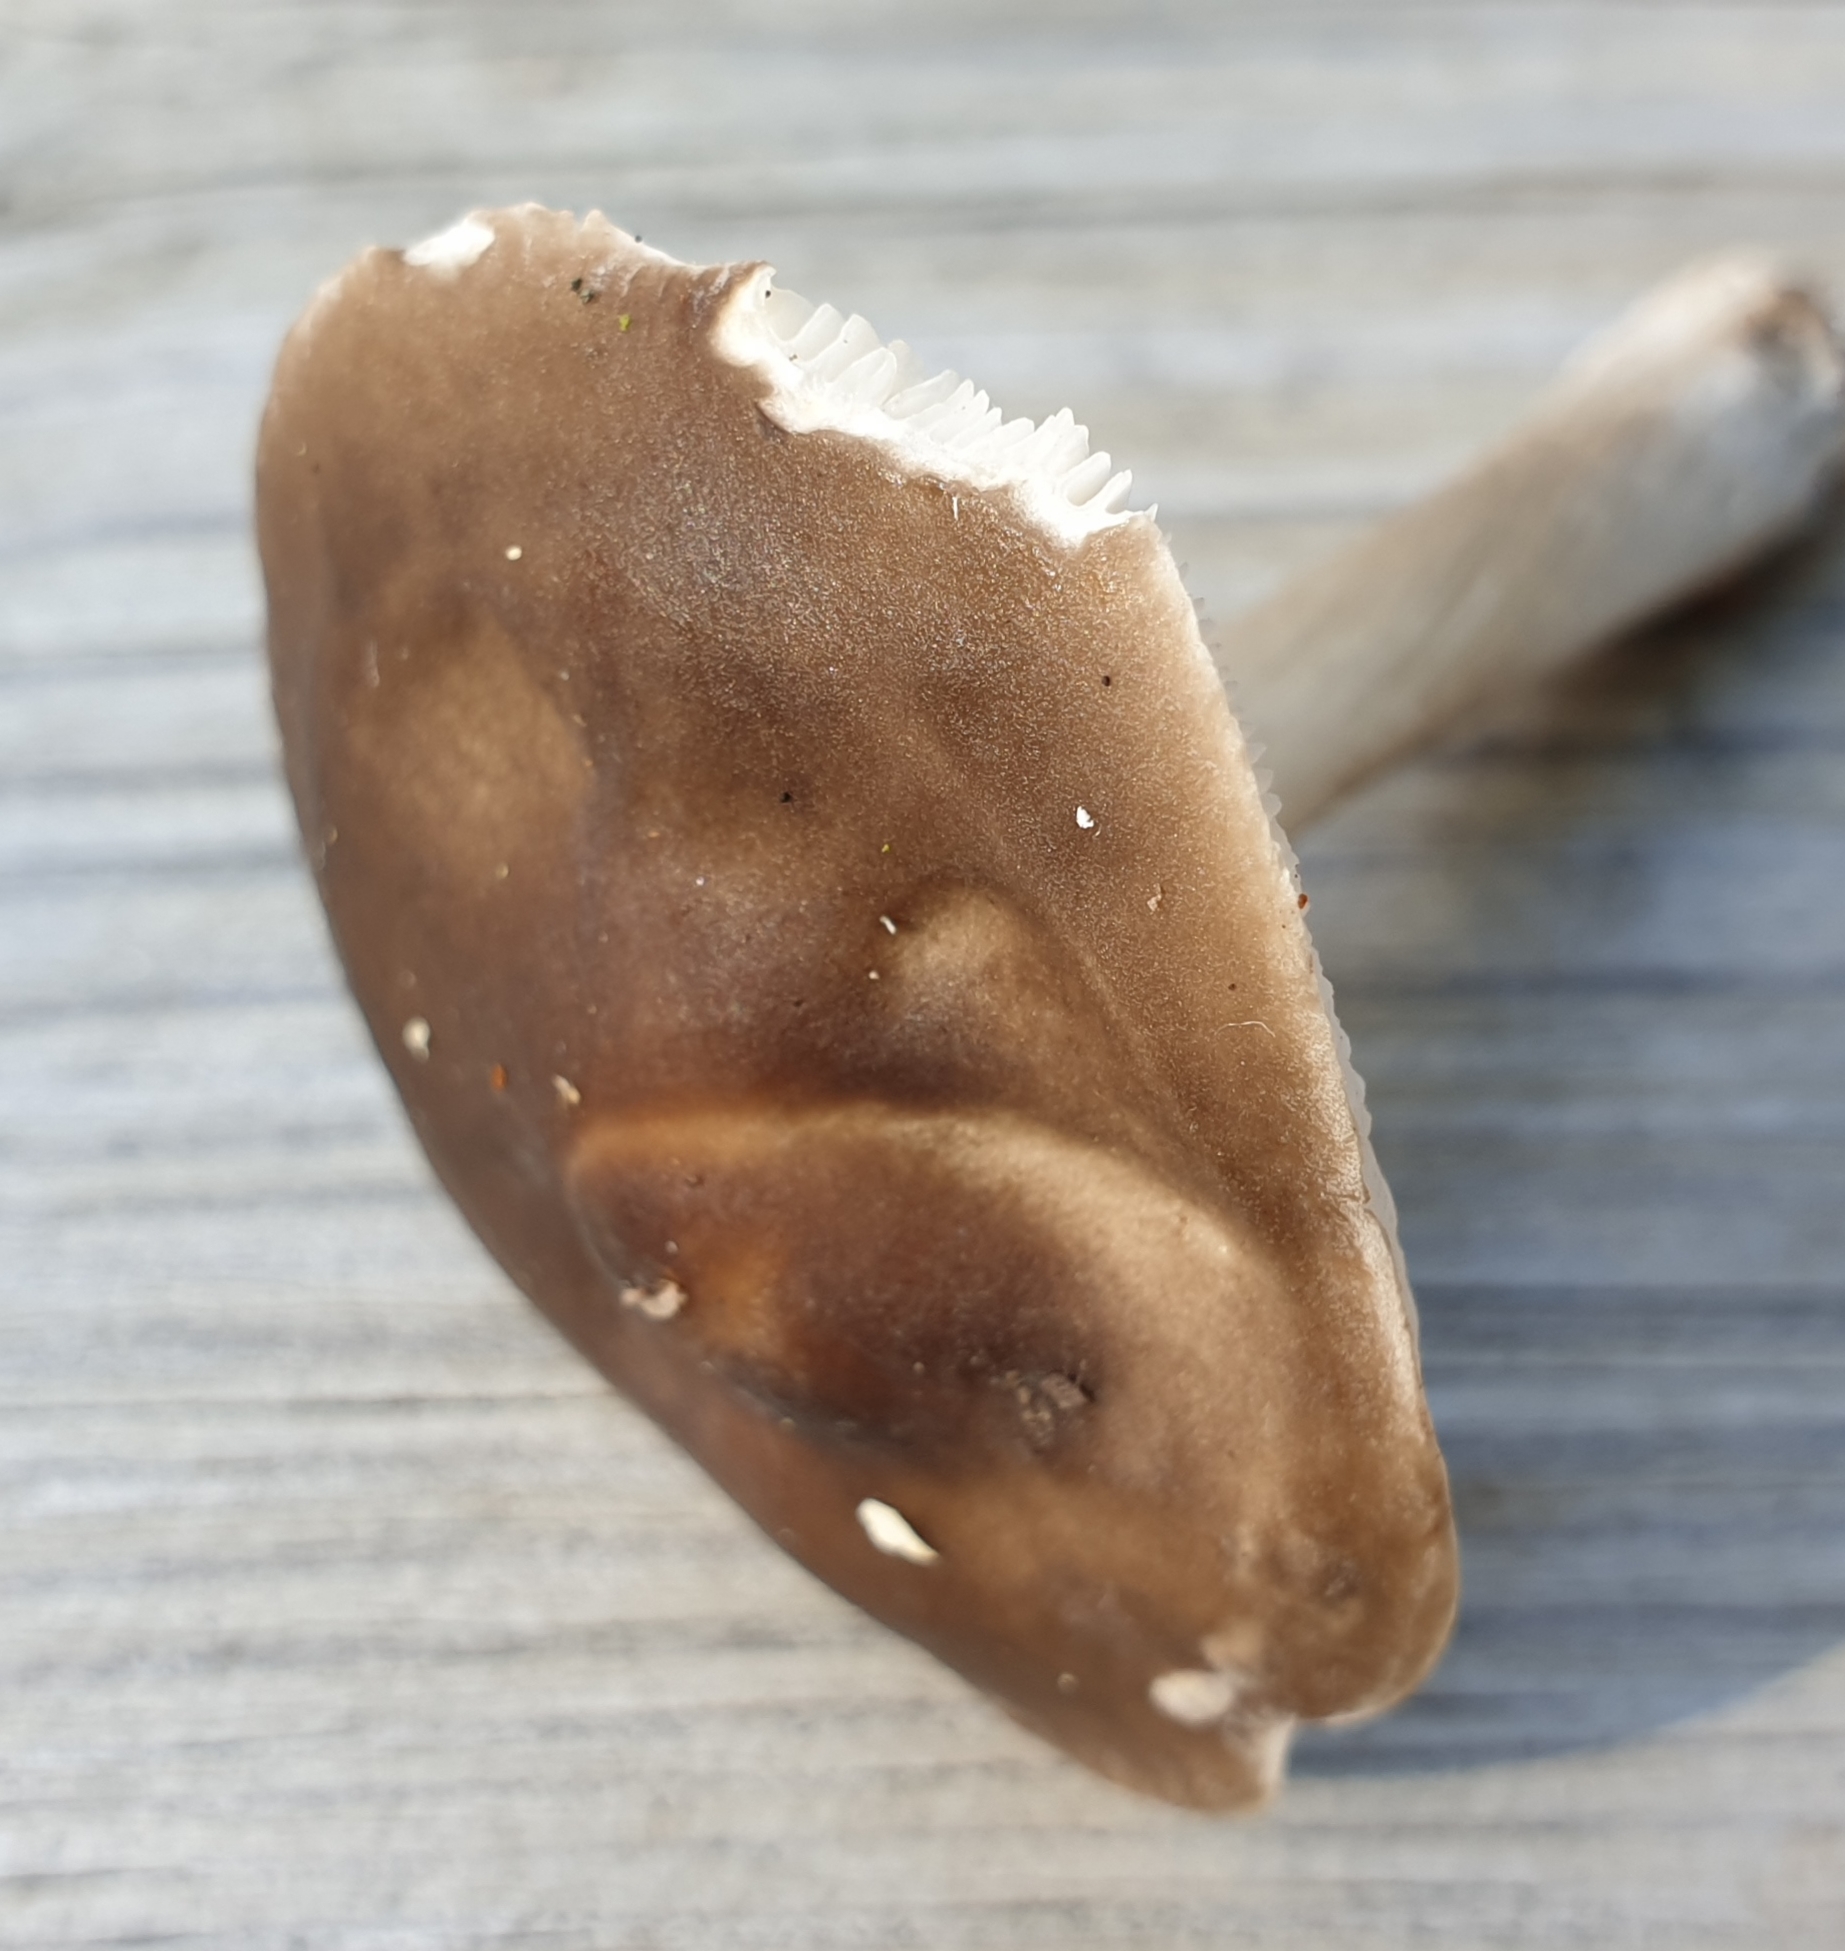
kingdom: Fungi
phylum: Basidiomycota
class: Agaricomycetes
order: Agaricales
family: Pluteaceae
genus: Pluteus
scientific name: Pluteus cervinus
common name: Deer shield
